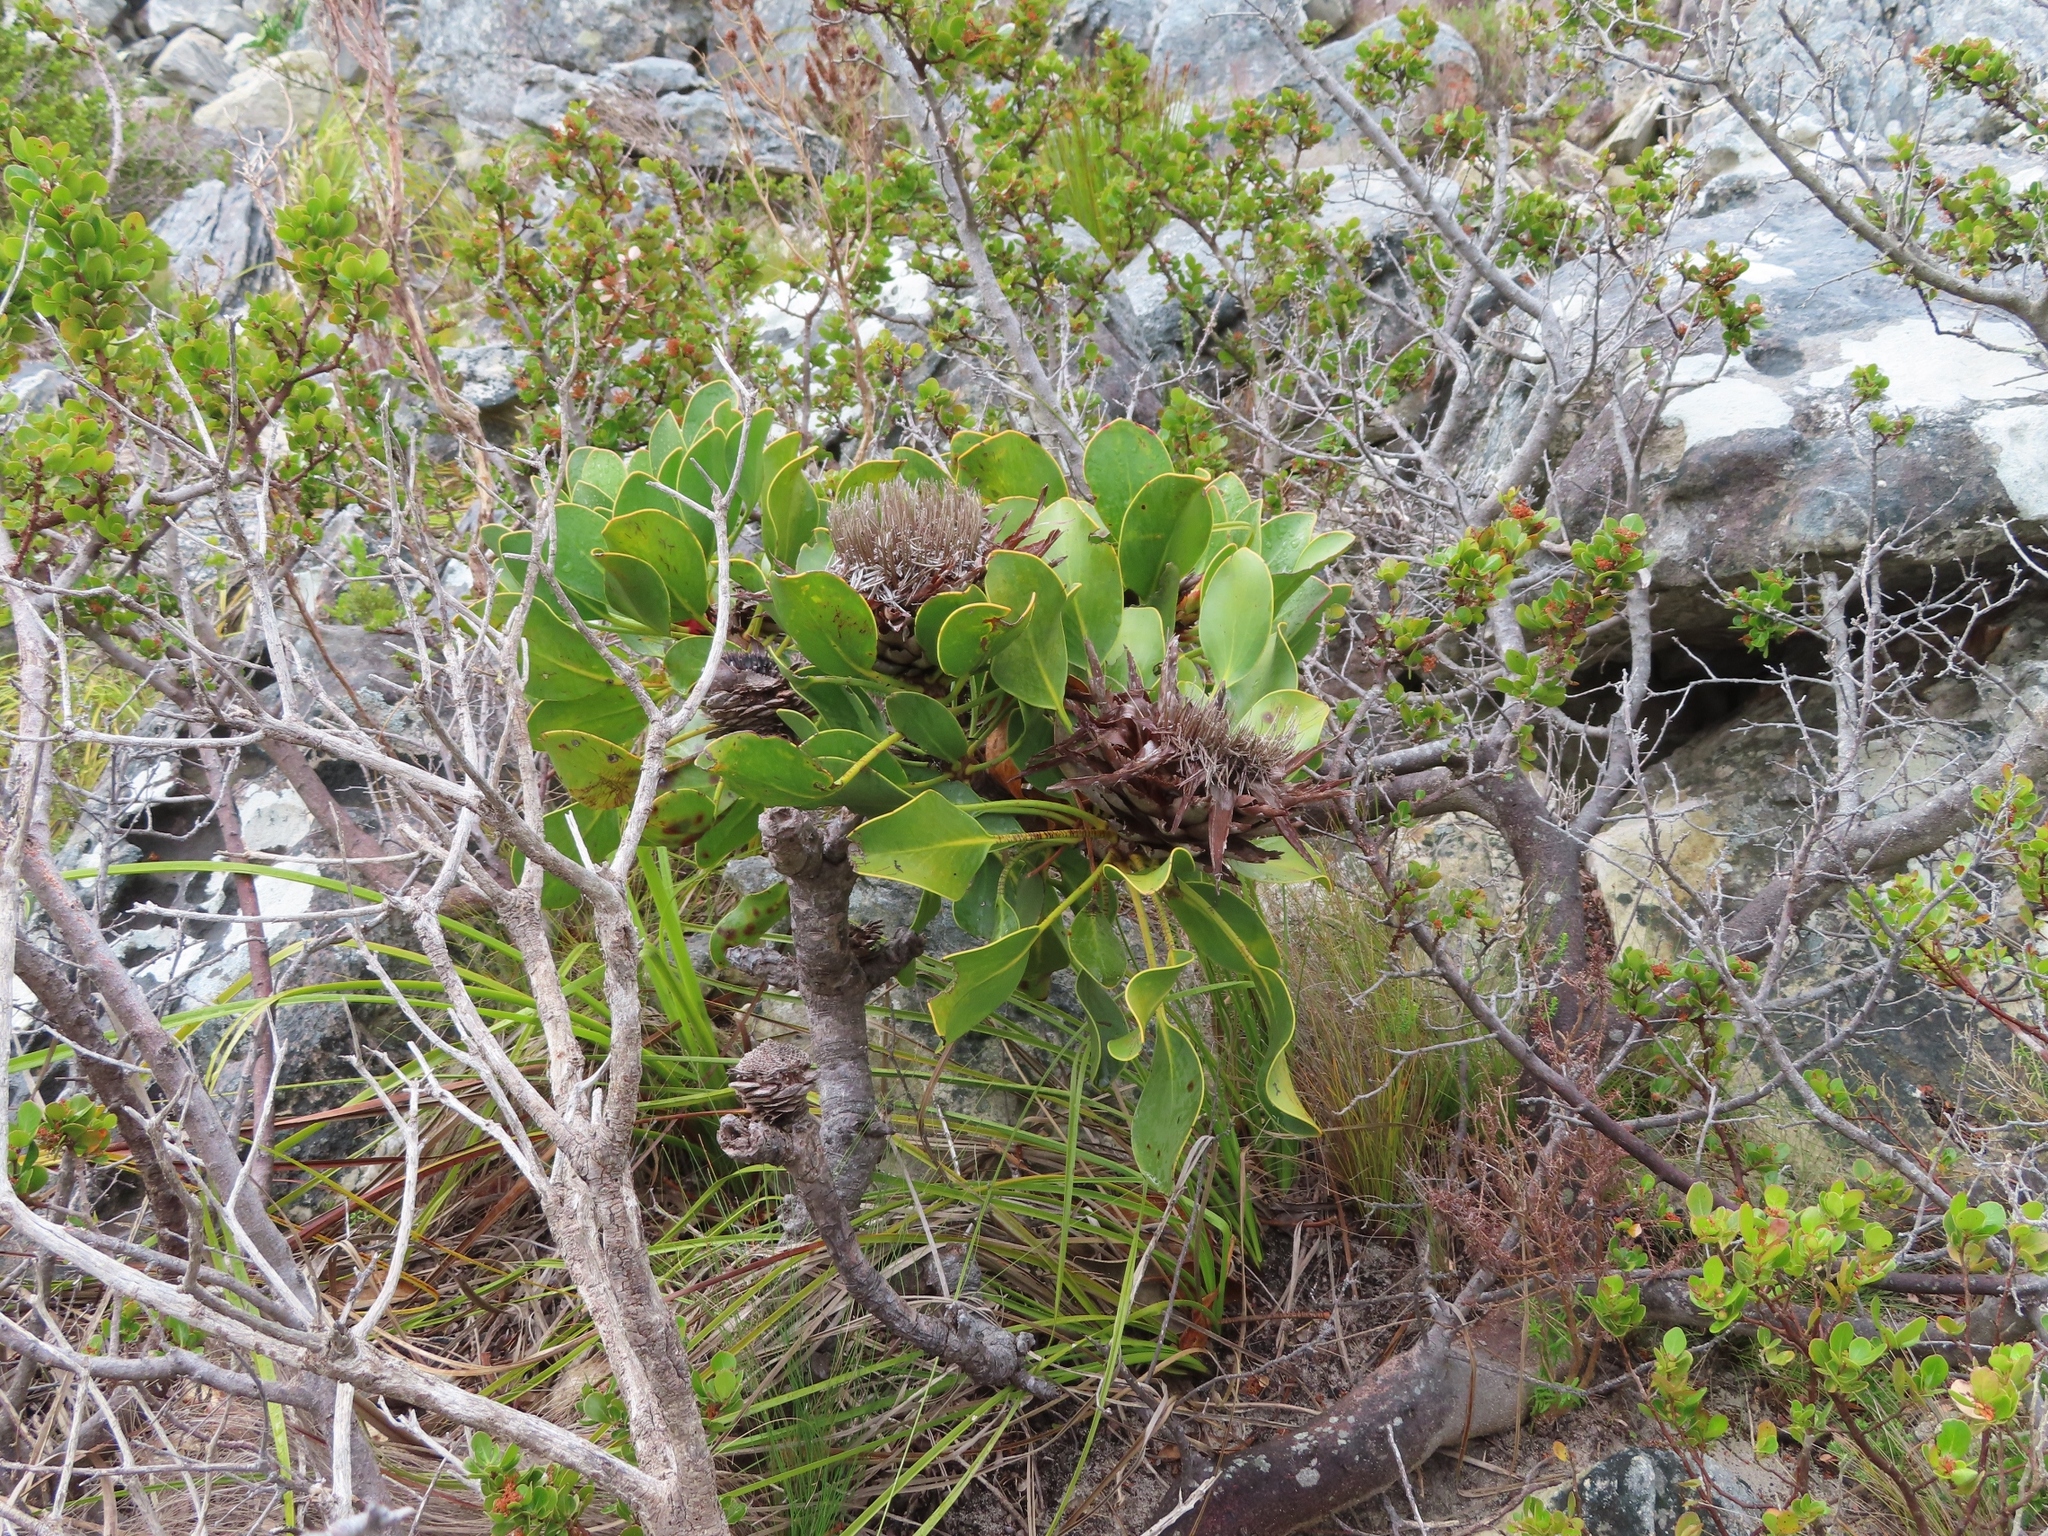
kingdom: Plantae
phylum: Tracheophyta
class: Magnoliopsida
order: Proteales
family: Proteaceae
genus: Protea
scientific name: Protea cynaroides
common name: King protea
